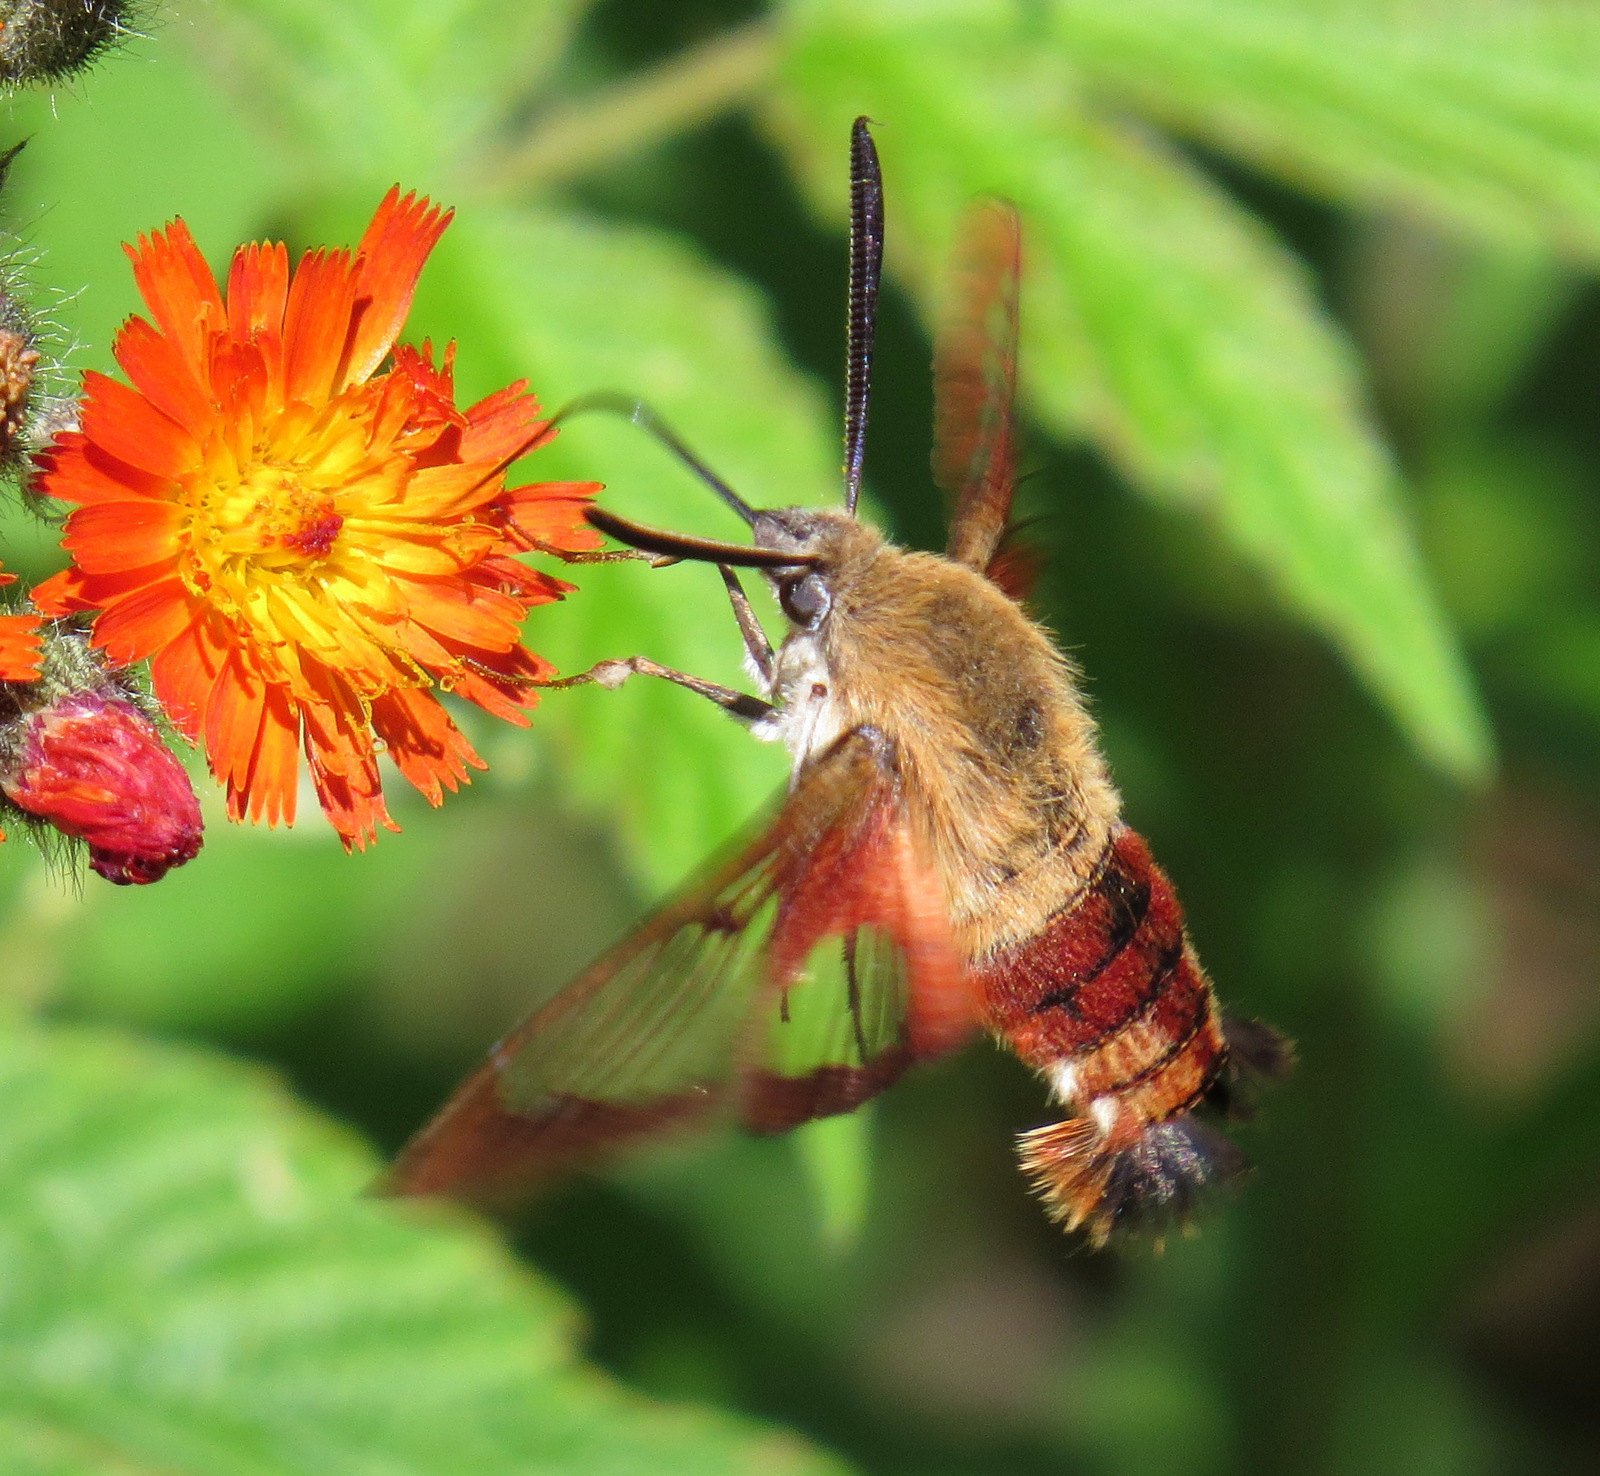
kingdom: Animalia
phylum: Arthropoda
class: Insecta
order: Lepidoptera
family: Sphingidae
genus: Hemaris
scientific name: Hemaris thysbe
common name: Common clear-wing
